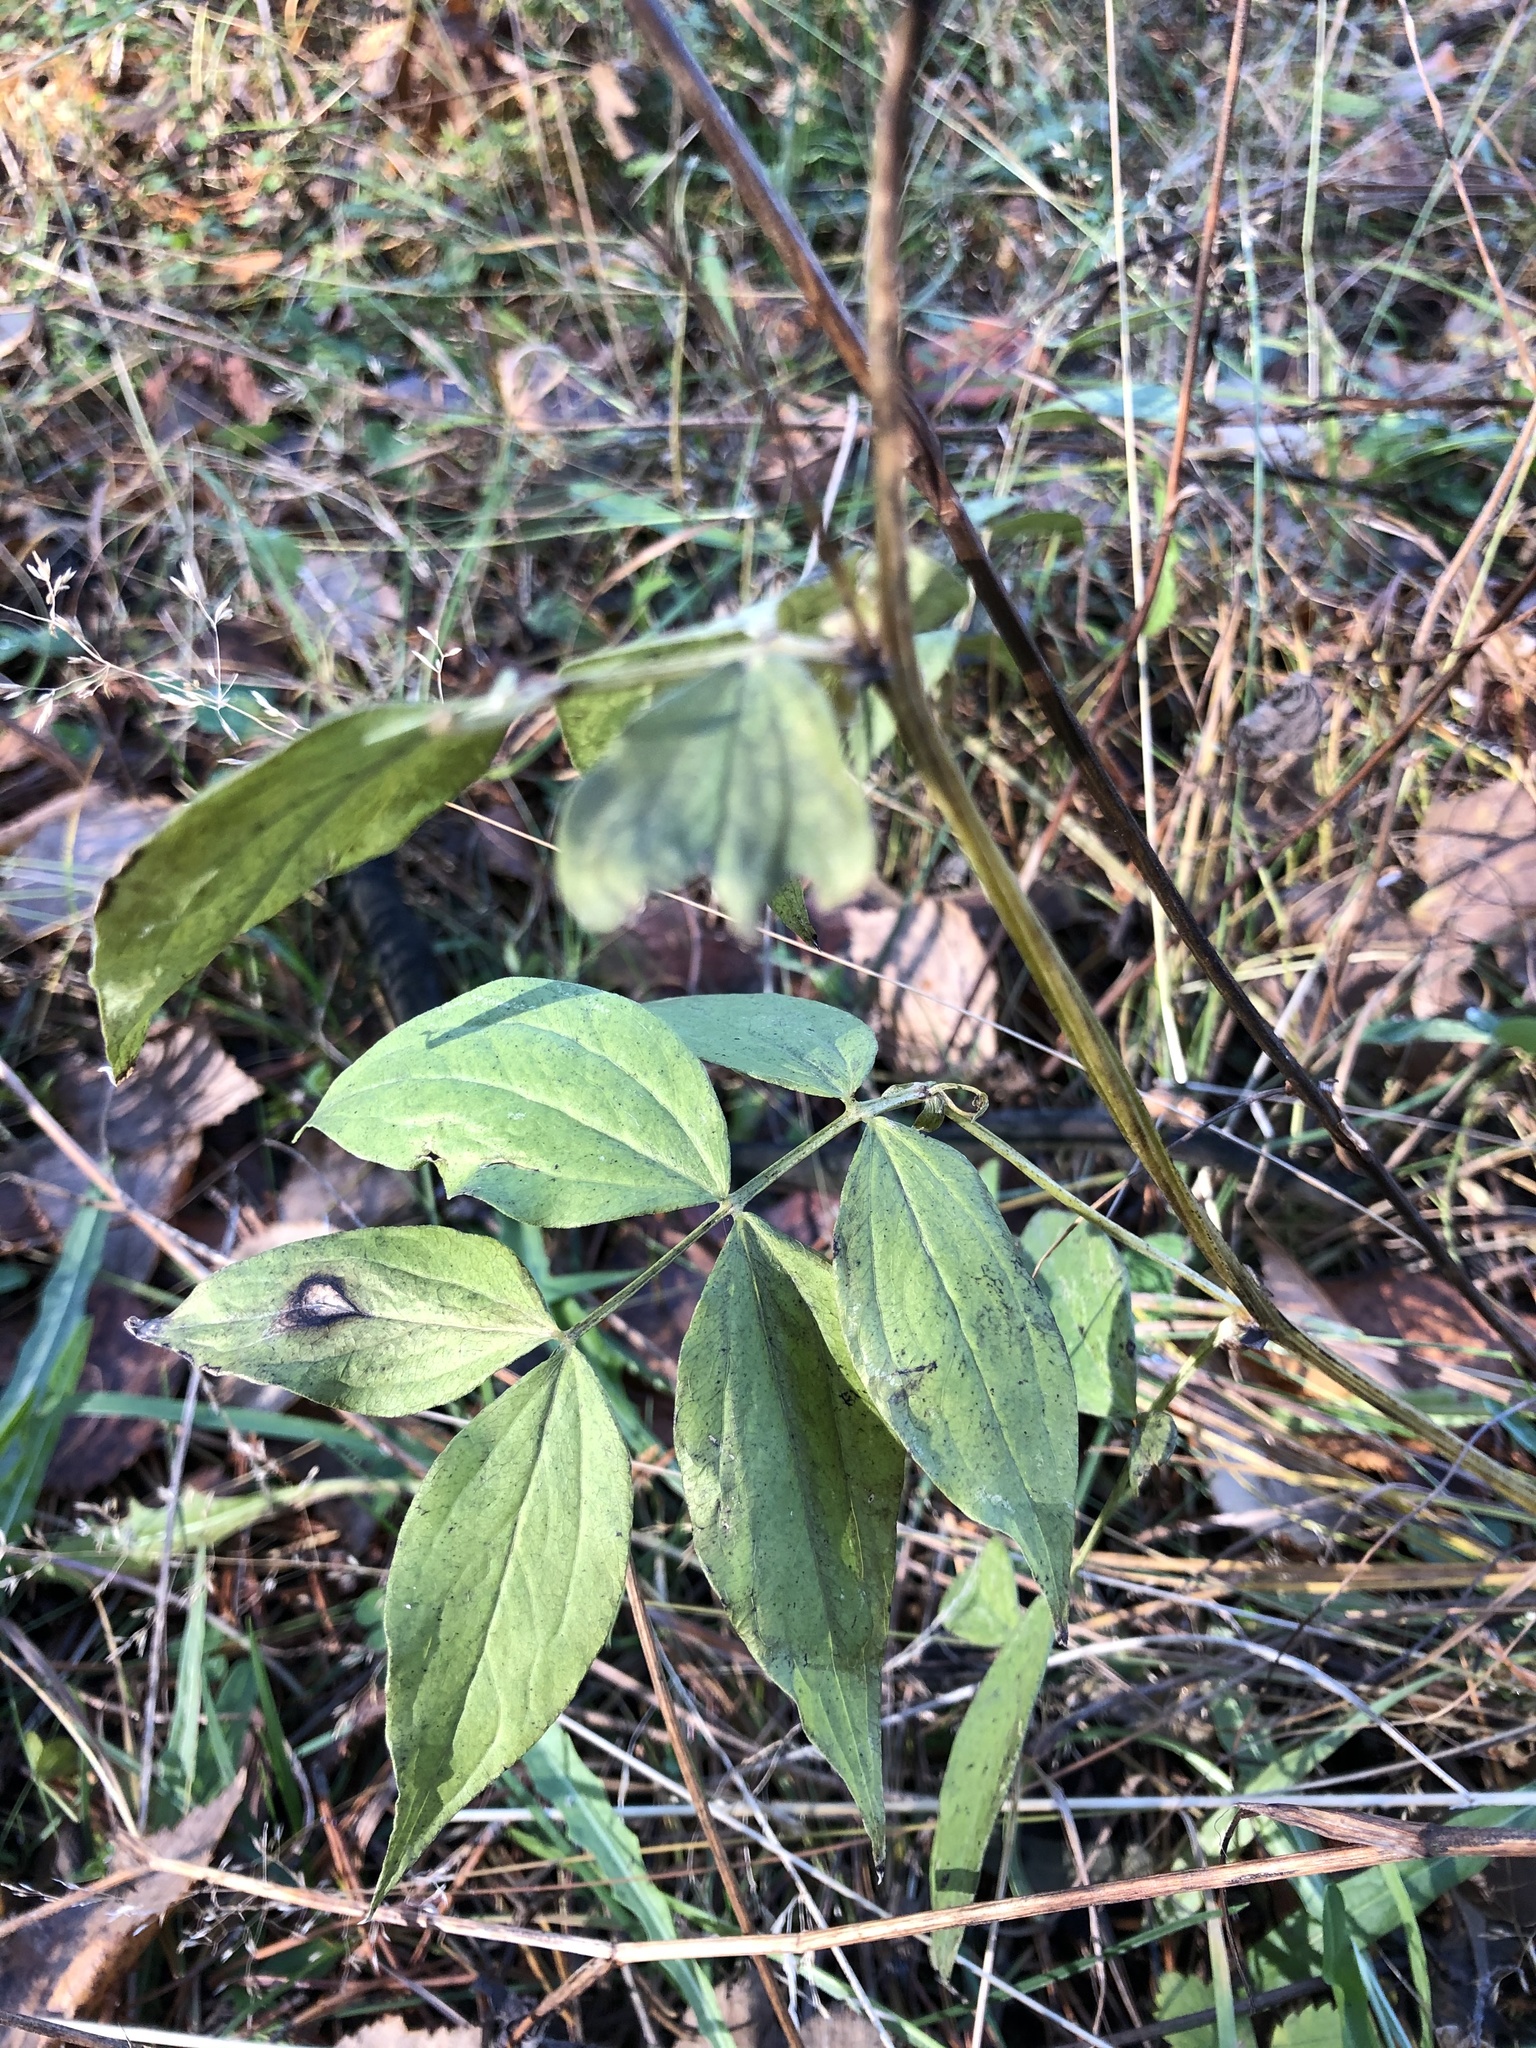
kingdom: Plantae
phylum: Tracheophyta
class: Magnoliopsida
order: Fabales
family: Fabaceae
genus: Lathyrus
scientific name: Lathyrus vernus
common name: Spring pea
